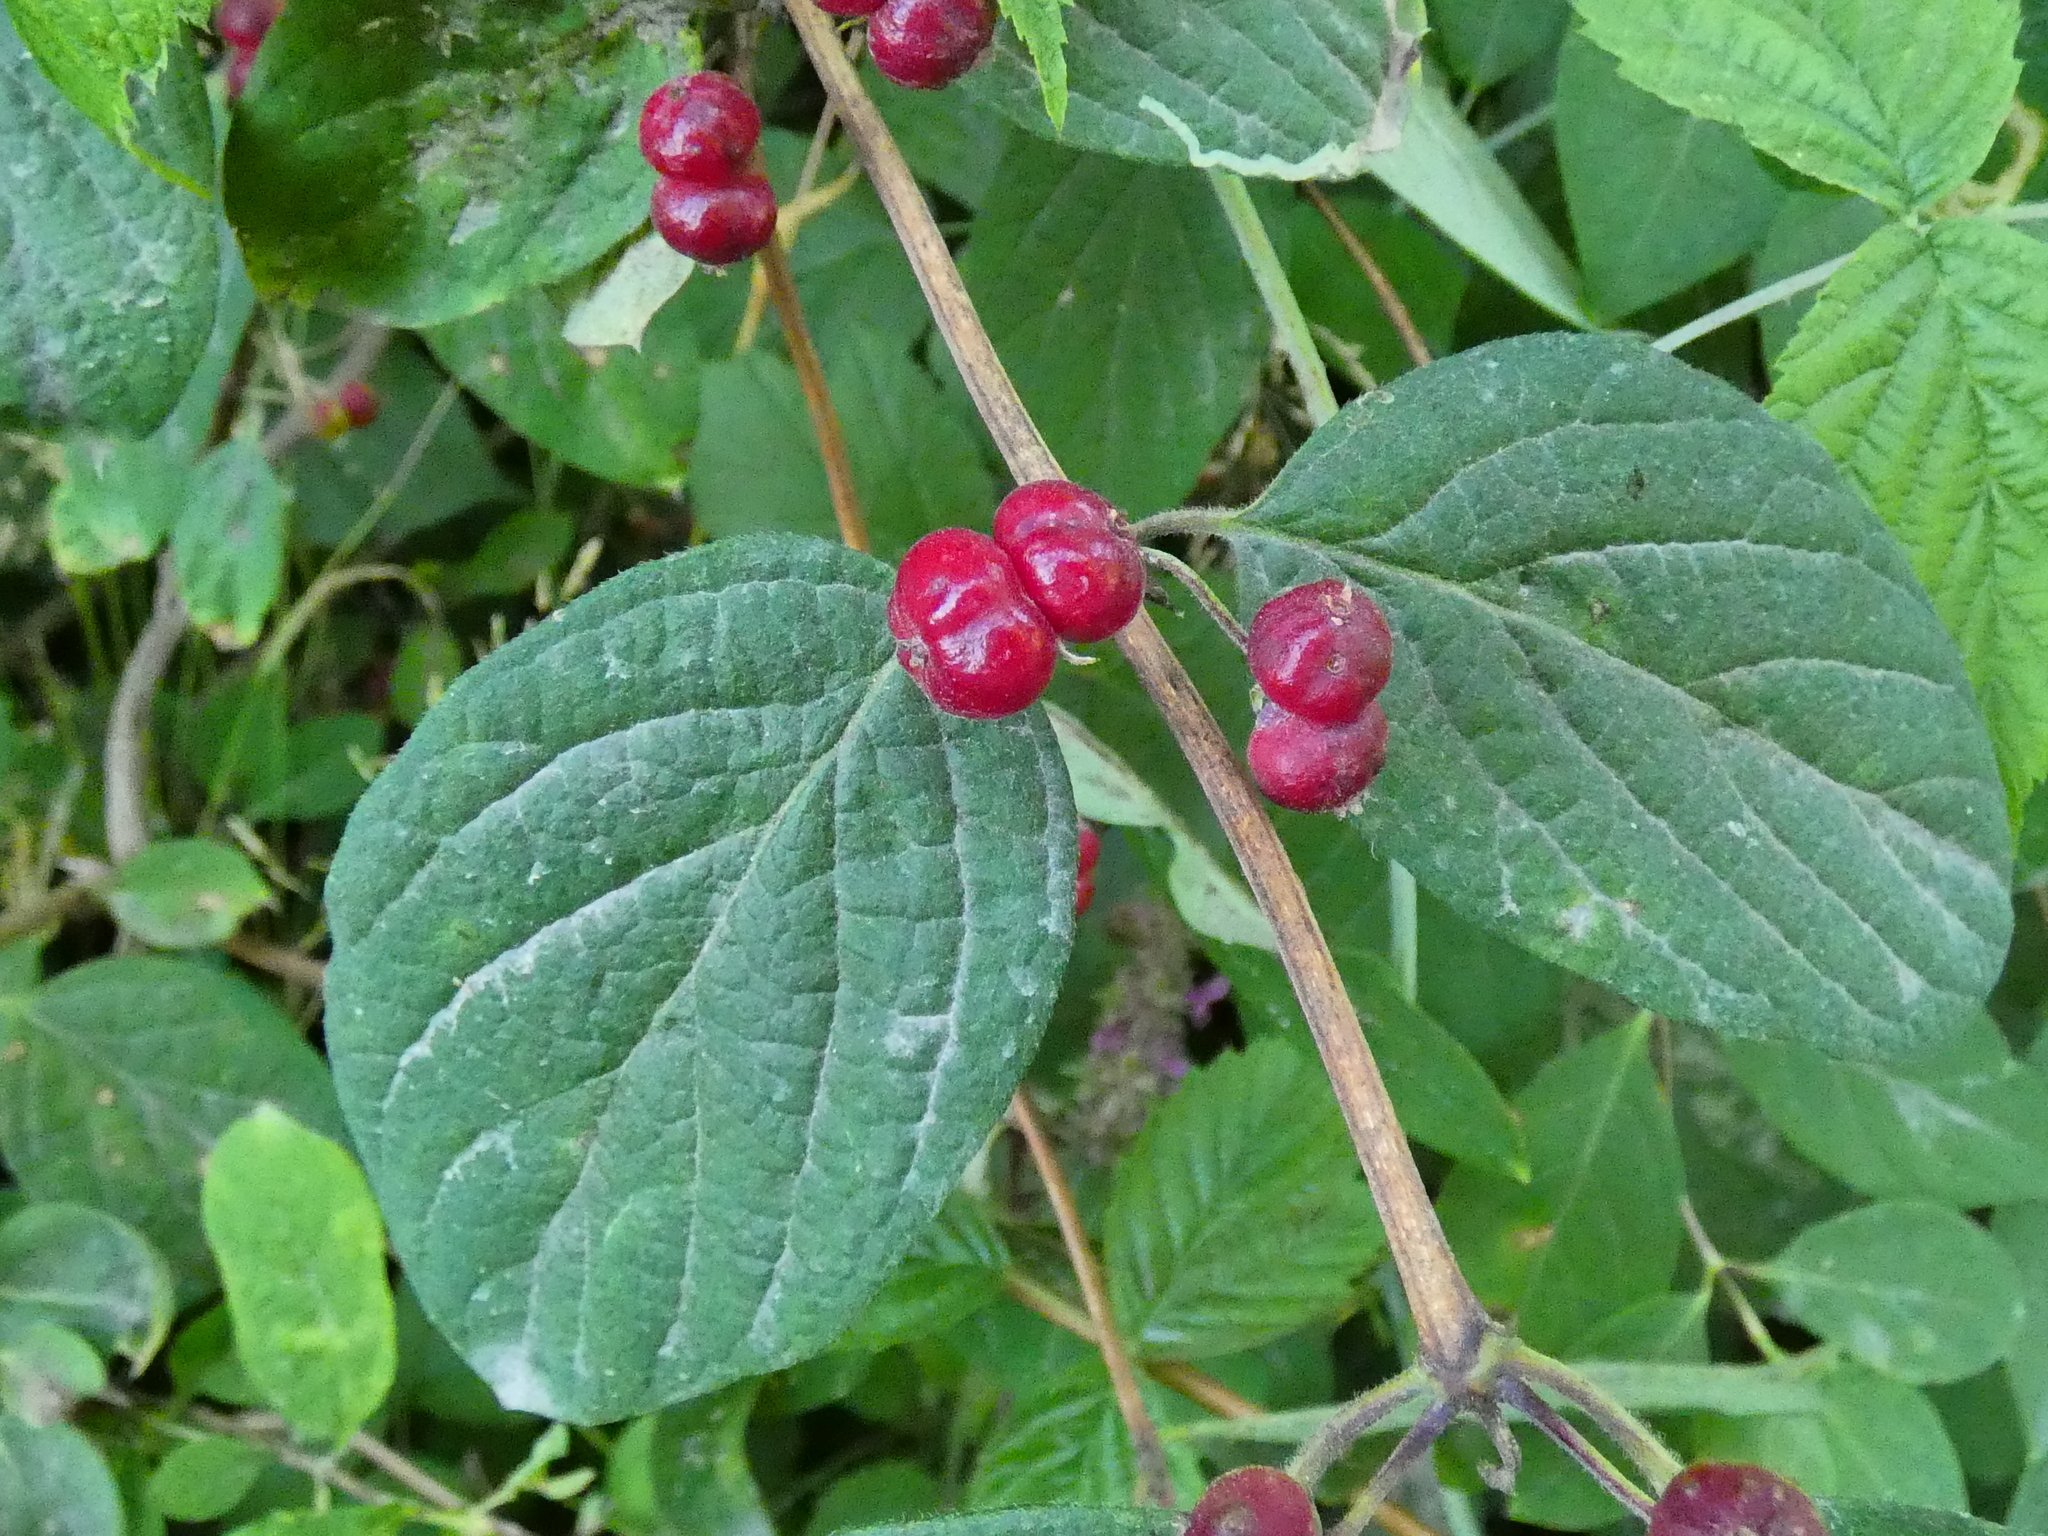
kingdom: Plantae
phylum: Tracheophyta
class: Magnoliopsida
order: Dipsacales
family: Caprifoliaceae
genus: Lonicera
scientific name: Lonicera xylosteum
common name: Fly honeysuckle
